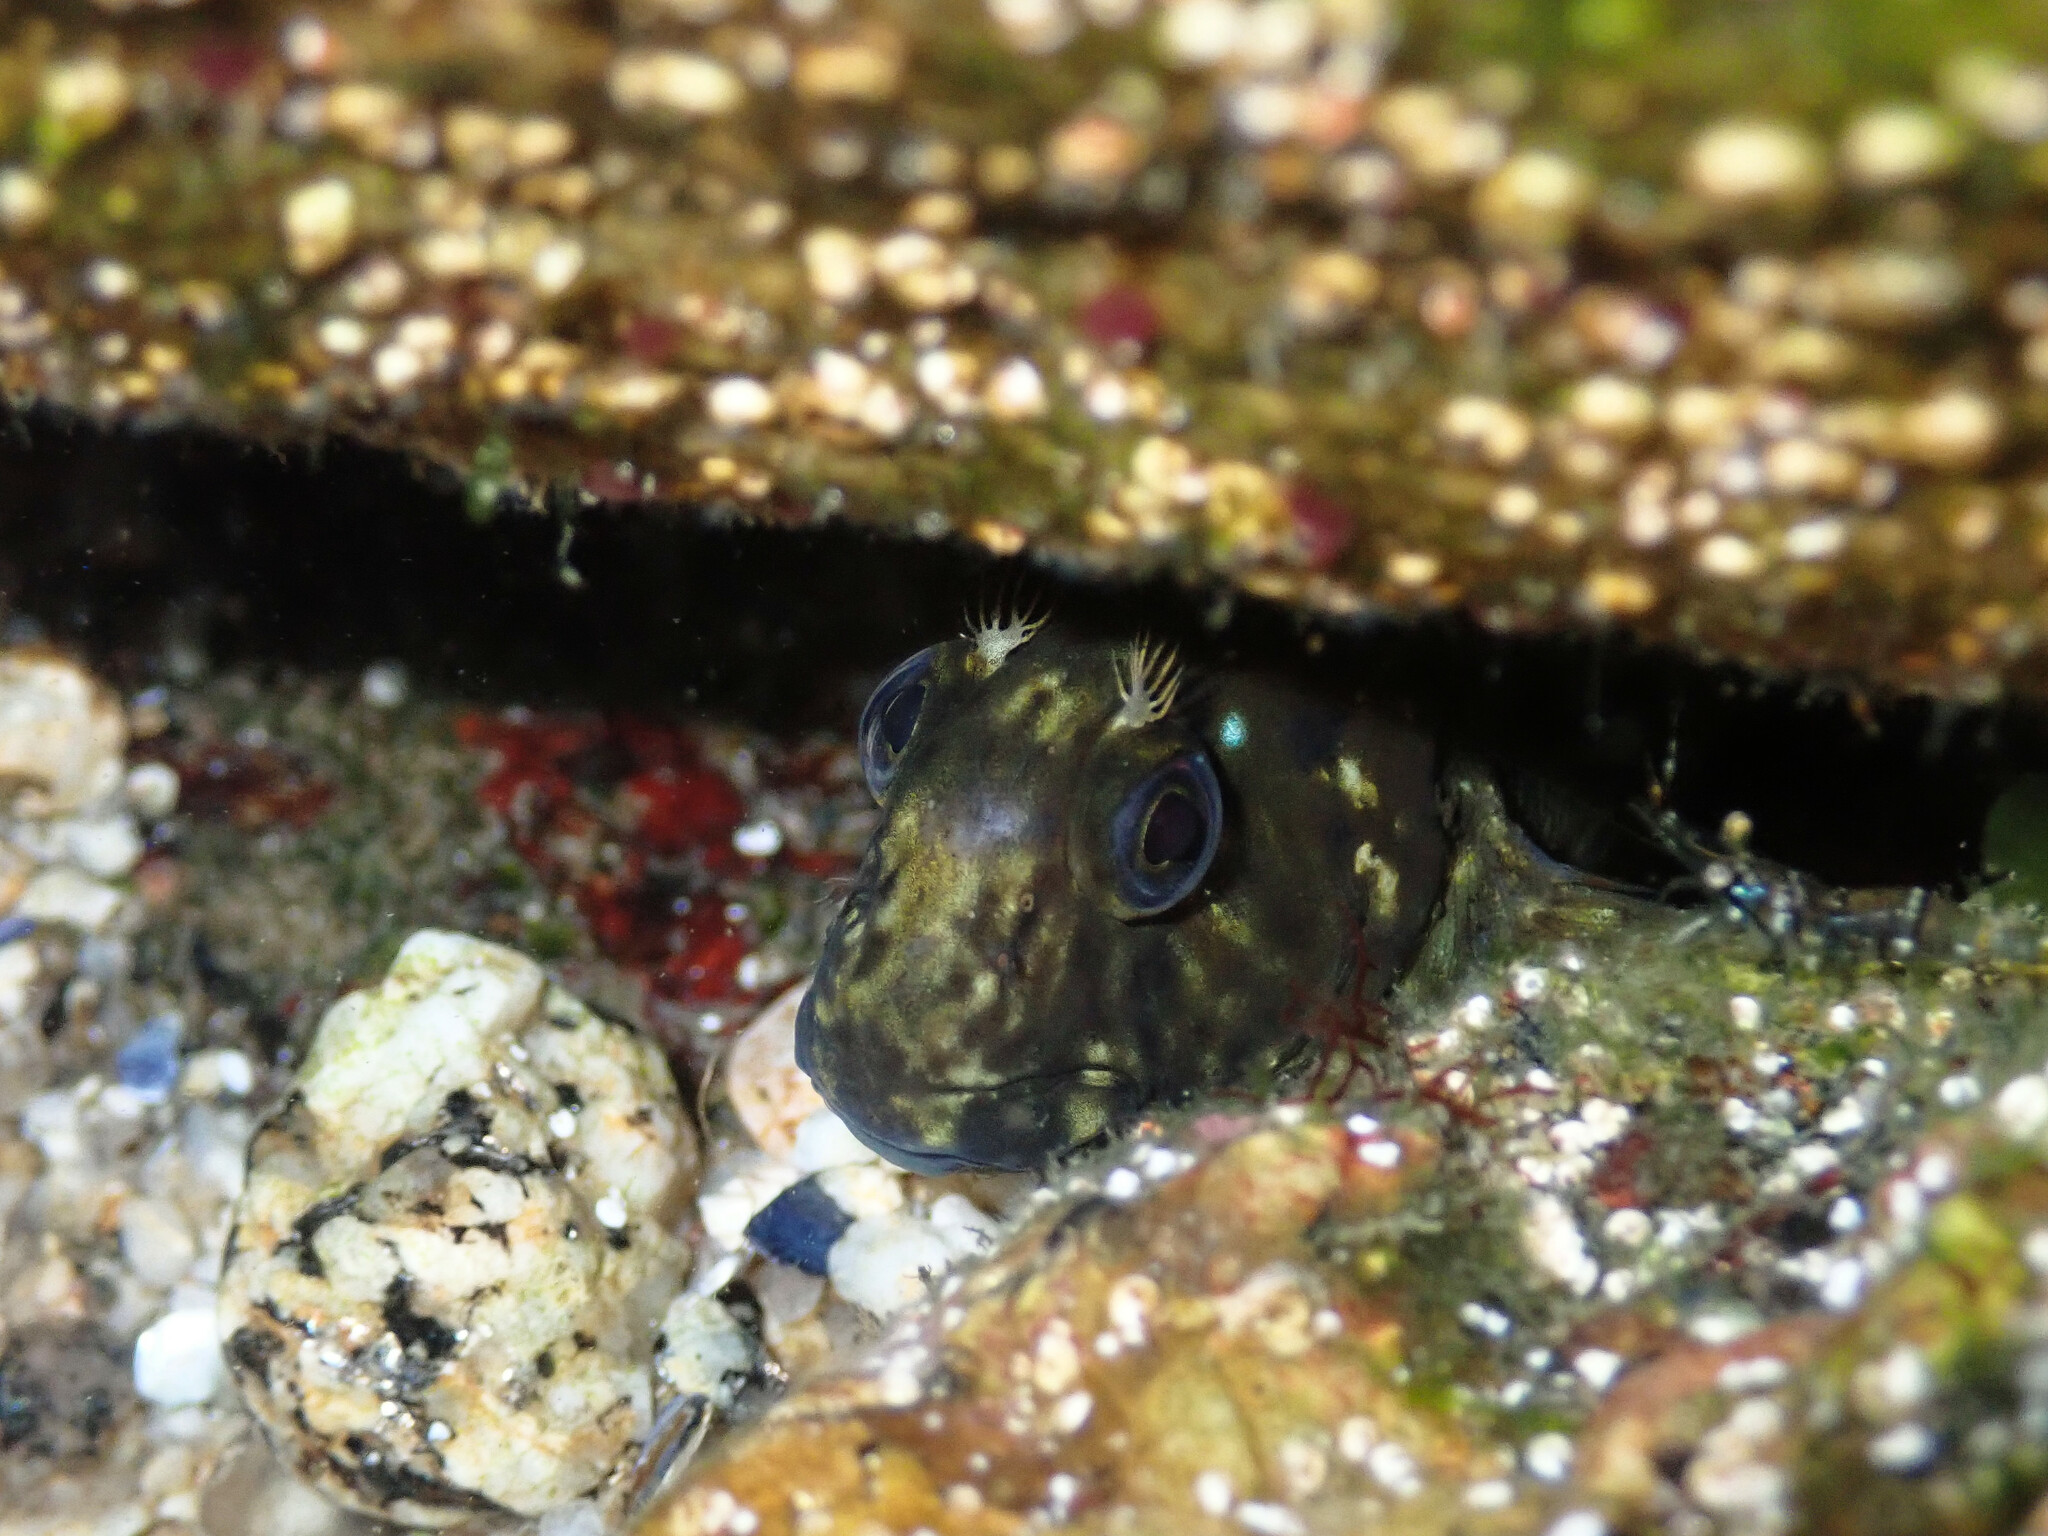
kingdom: Animalia
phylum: Chordata
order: Perciformes
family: Blenniidae
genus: Parablennius
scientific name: Parablennius sanguinolentus
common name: Black sea blenny
